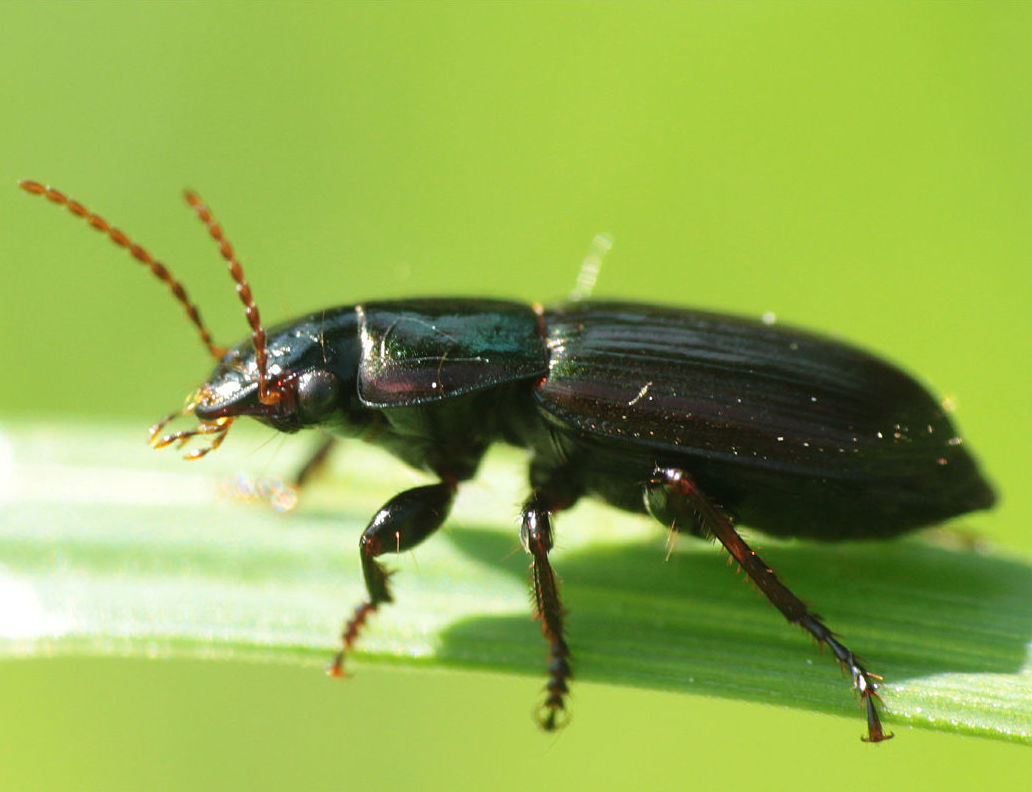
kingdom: Animalia
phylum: Arthropoda
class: Insecta
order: Coleoptera
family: Carabidae
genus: Harpalus
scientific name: Harpalus affinis
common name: Polychrome harp ground beetle
